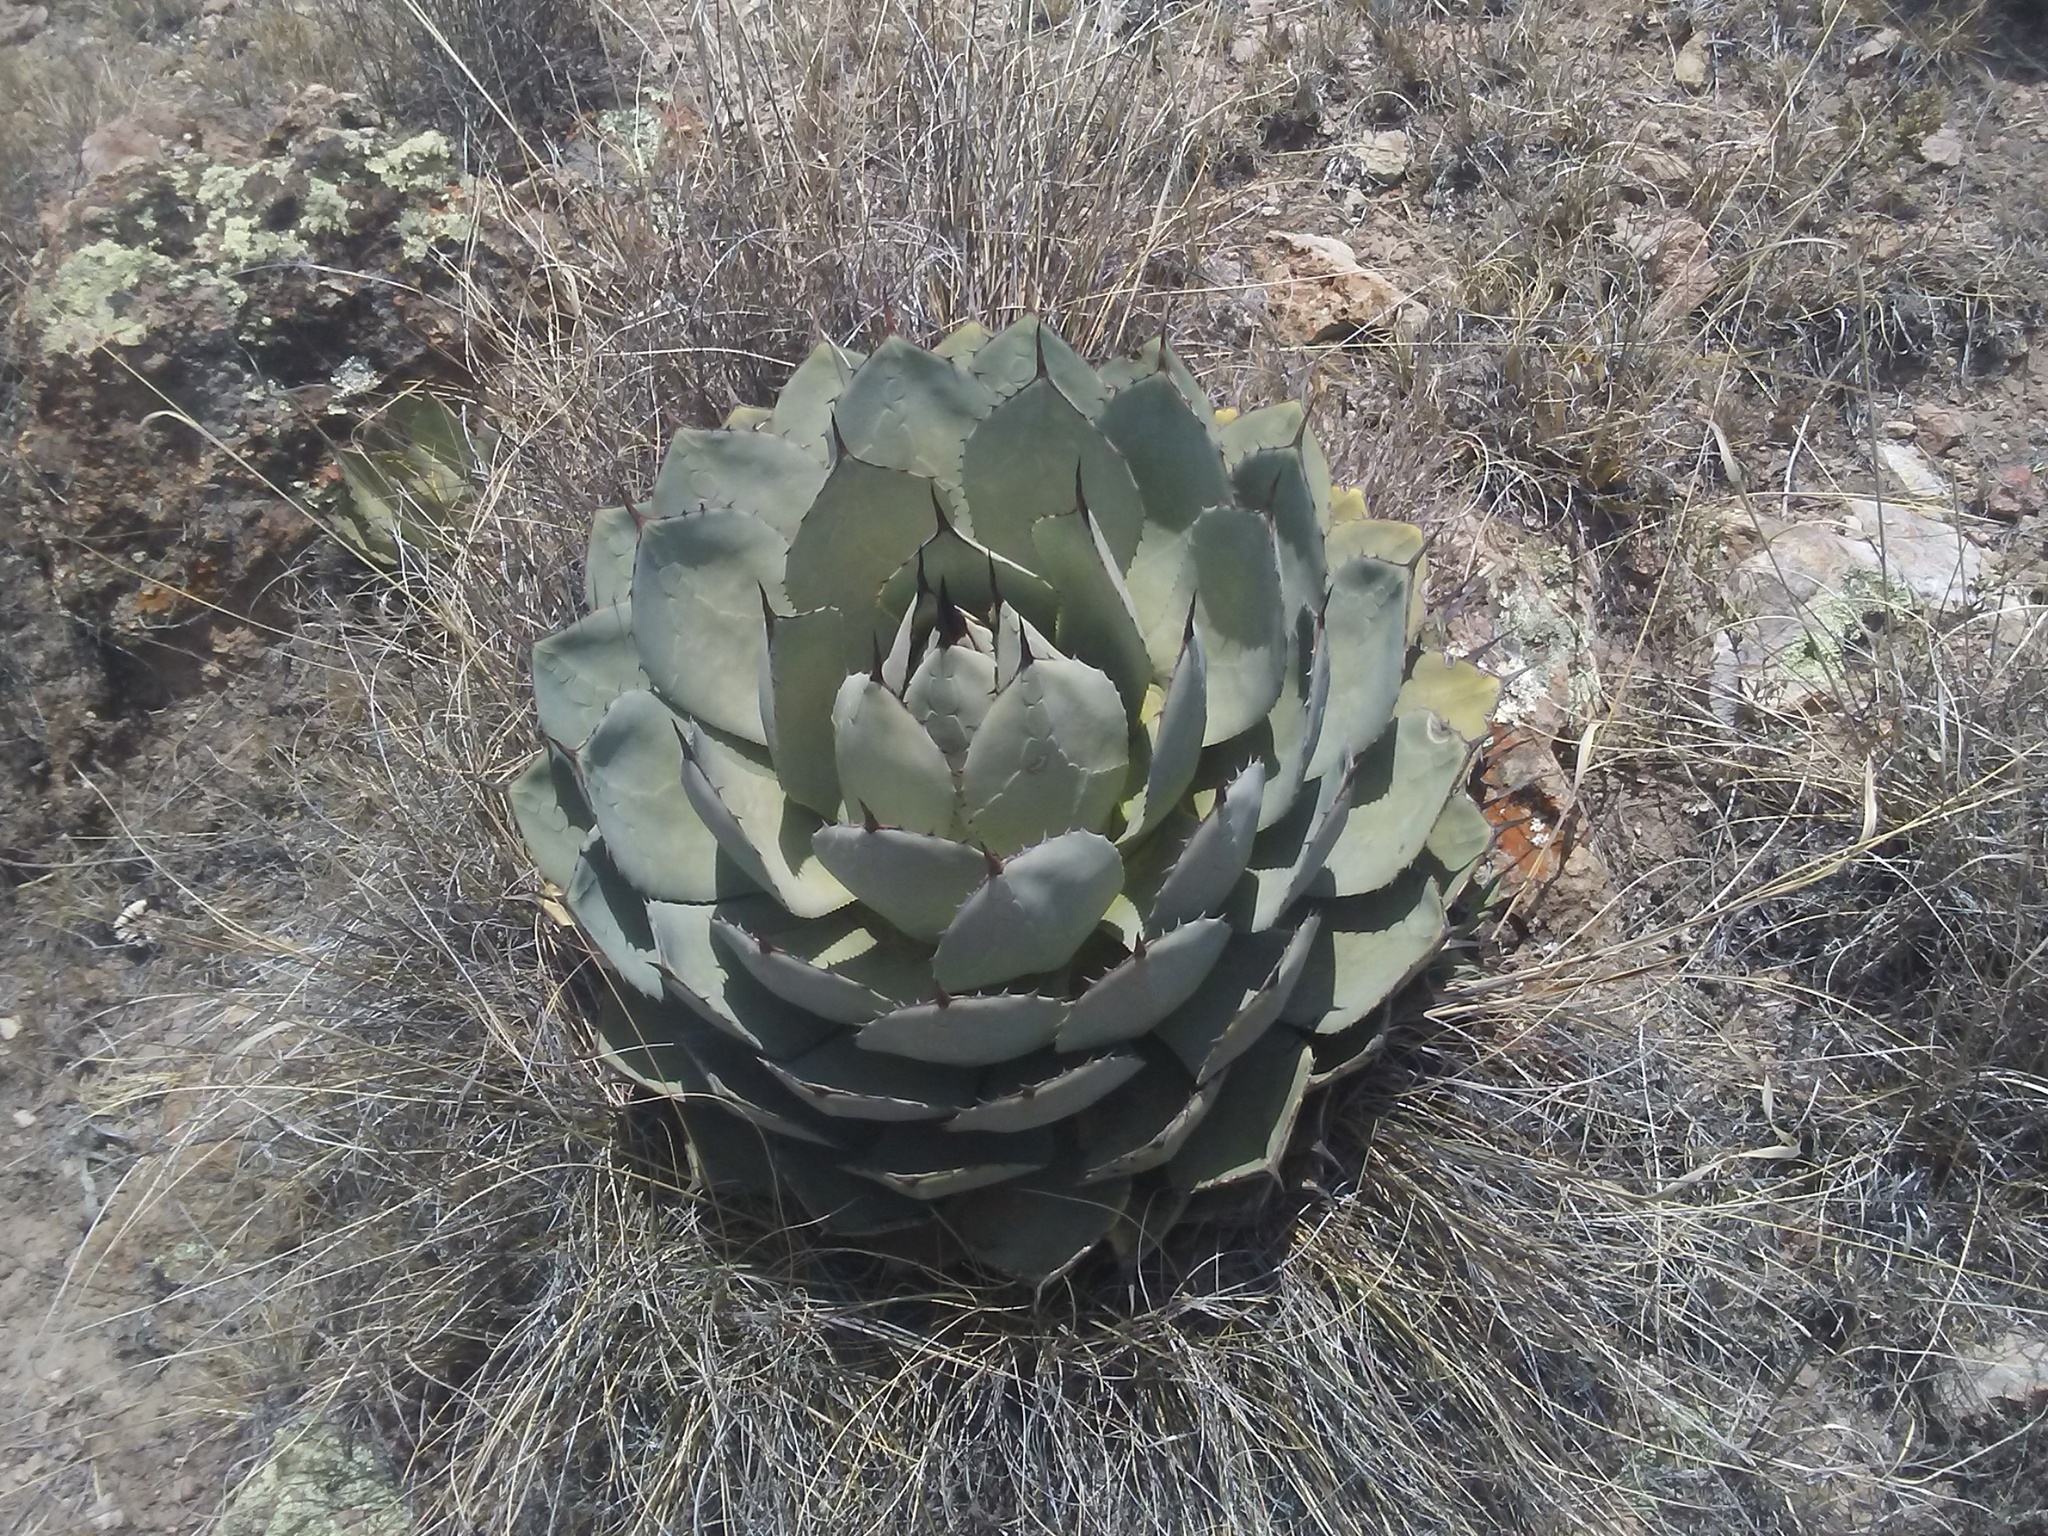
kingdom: Plantae
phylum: Tracheophyta
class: Liliopsida
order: Asparagales
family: Asparagaceae
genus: Agave
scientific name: Agave parryi
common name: Parry's agave
